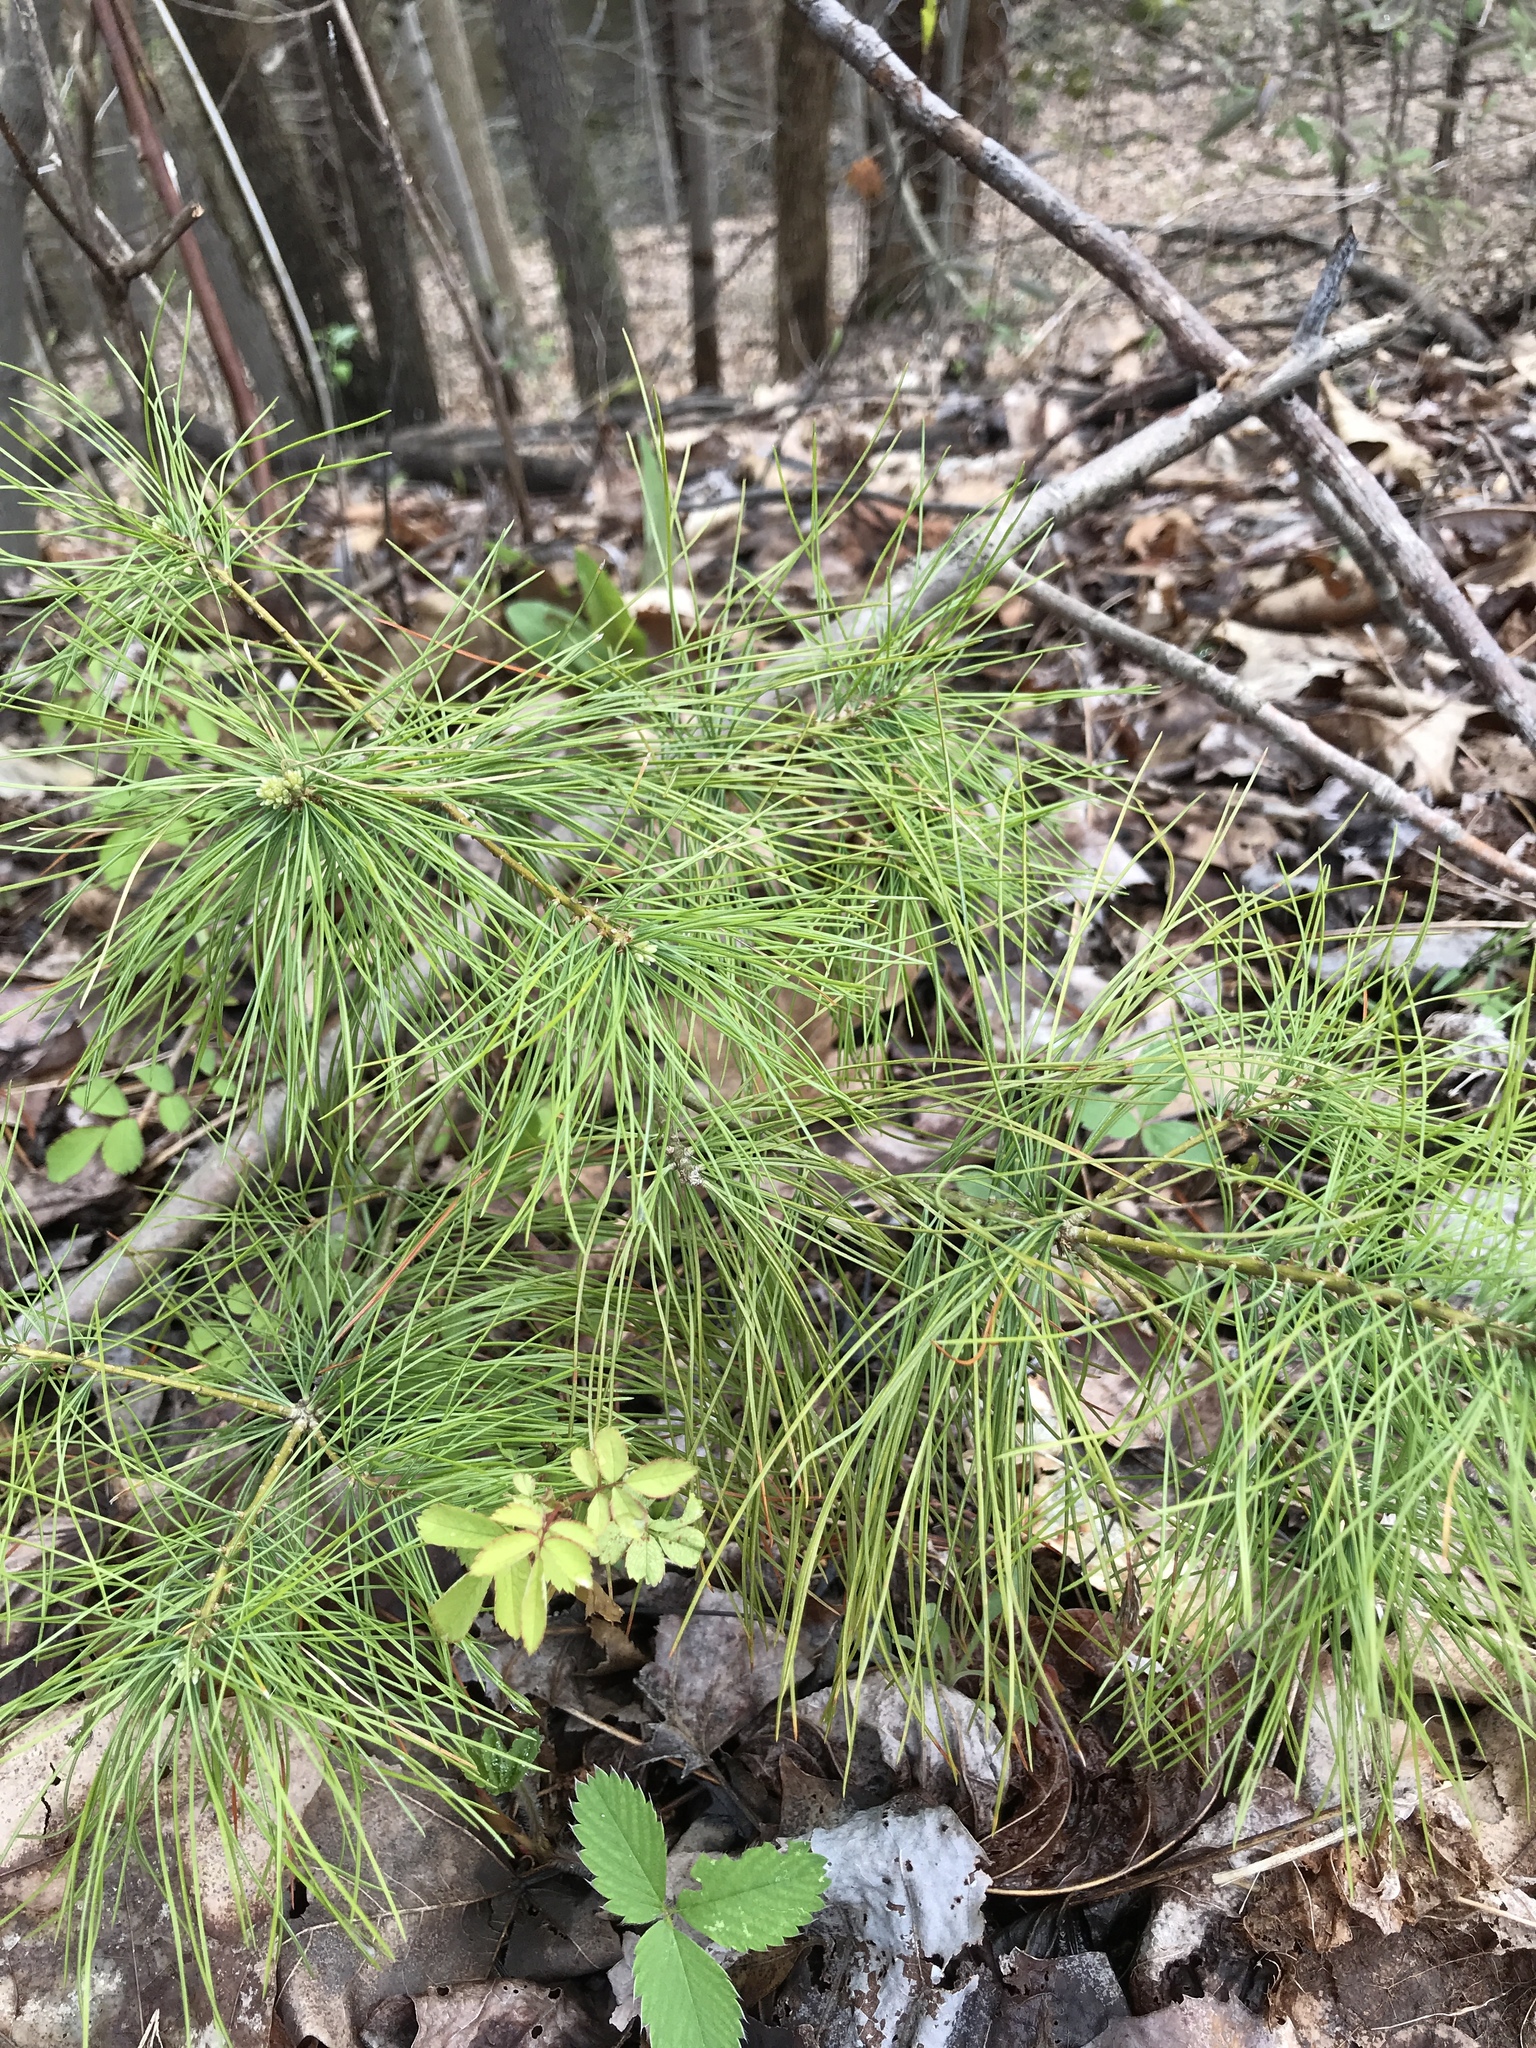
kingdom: Plantae
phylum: Tracheophyta
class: Pinopsida
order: Pinales
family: Pinaceae
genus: Pinus
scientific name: Pinus strobus
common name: Weymouth pine
